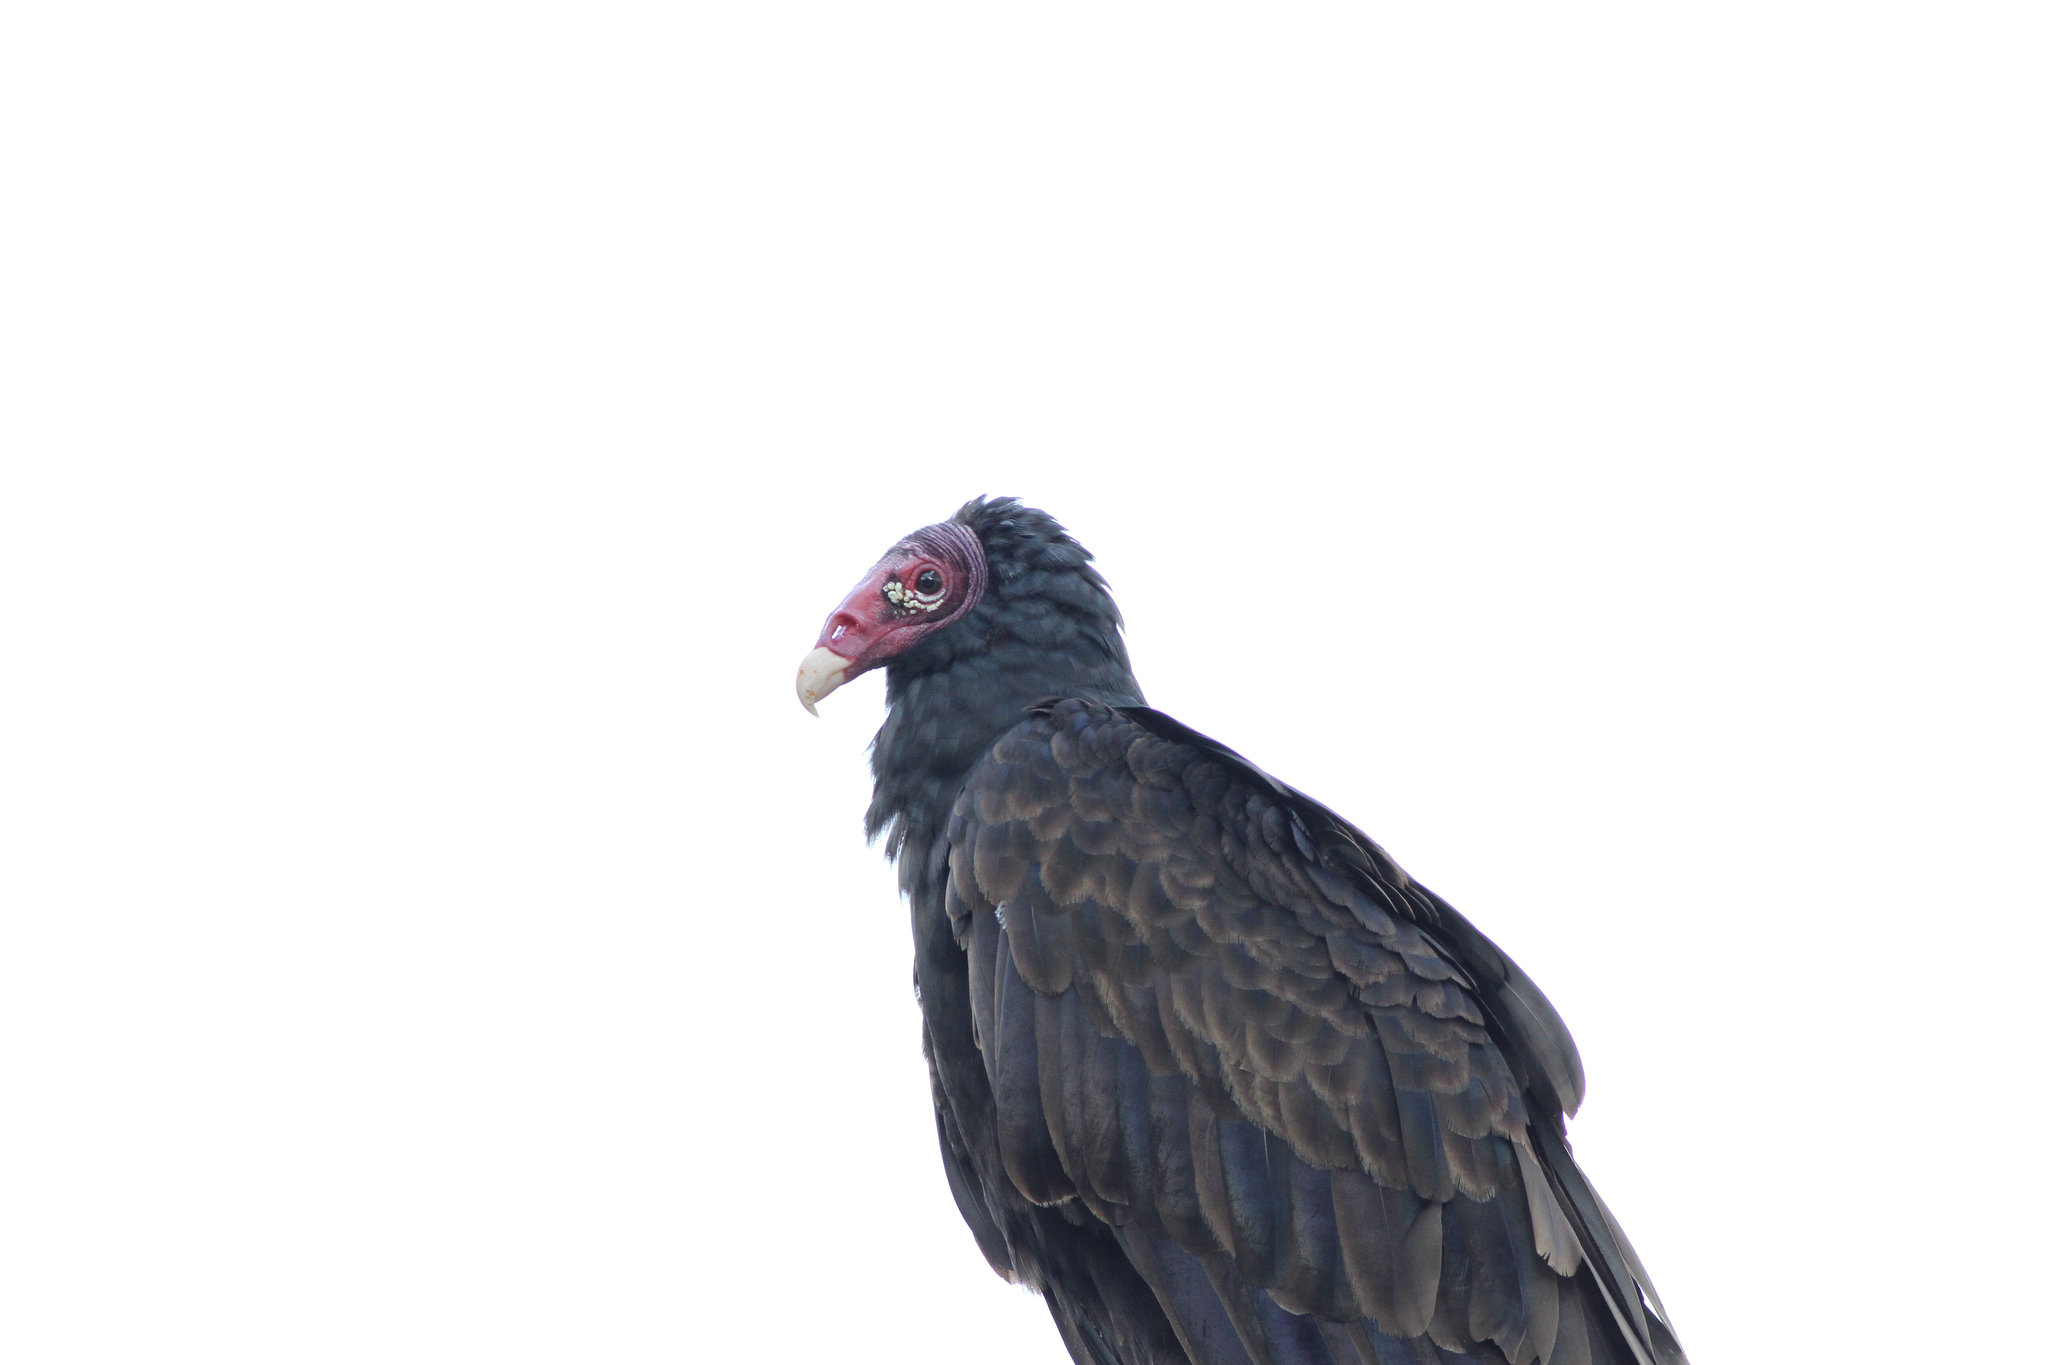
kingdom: Animalia
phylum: Chordata
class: Aves
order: Accipitriformes
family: Cathartidae
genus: Cathartes
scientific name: Cathartes aura
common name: Turkey vulture
